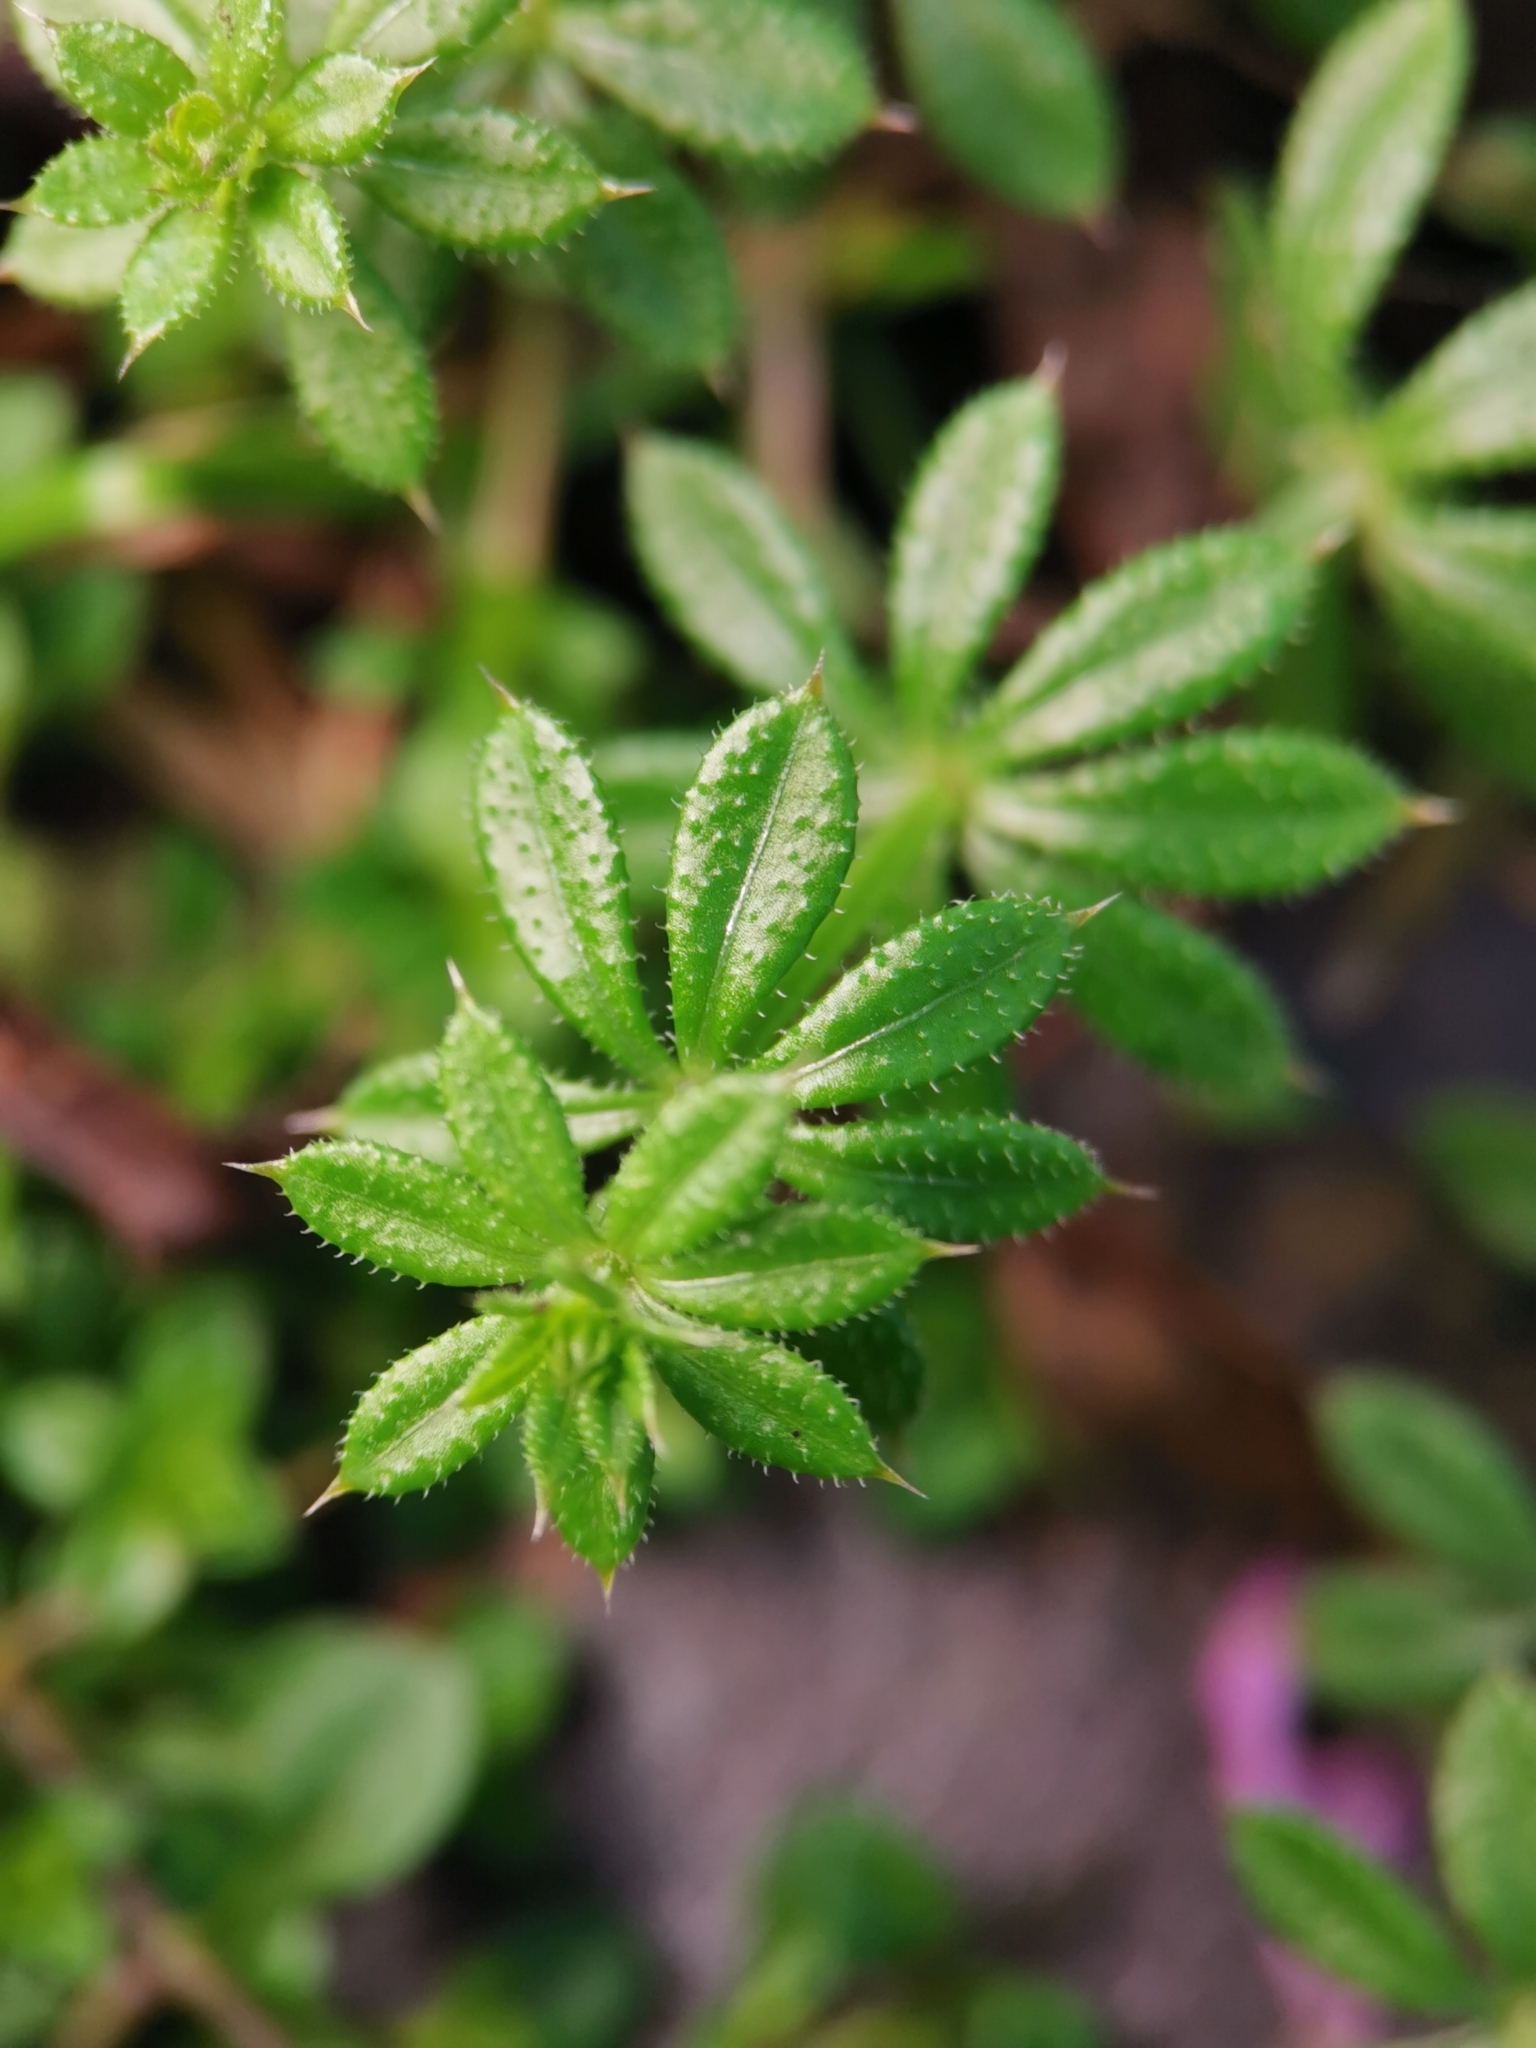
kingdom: Plantae
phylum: Tracheophyta
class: Magnoliopsida
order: Gentianales
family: Rubiaceae
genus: Galium
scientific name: Galium aparine
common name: Cleavers
